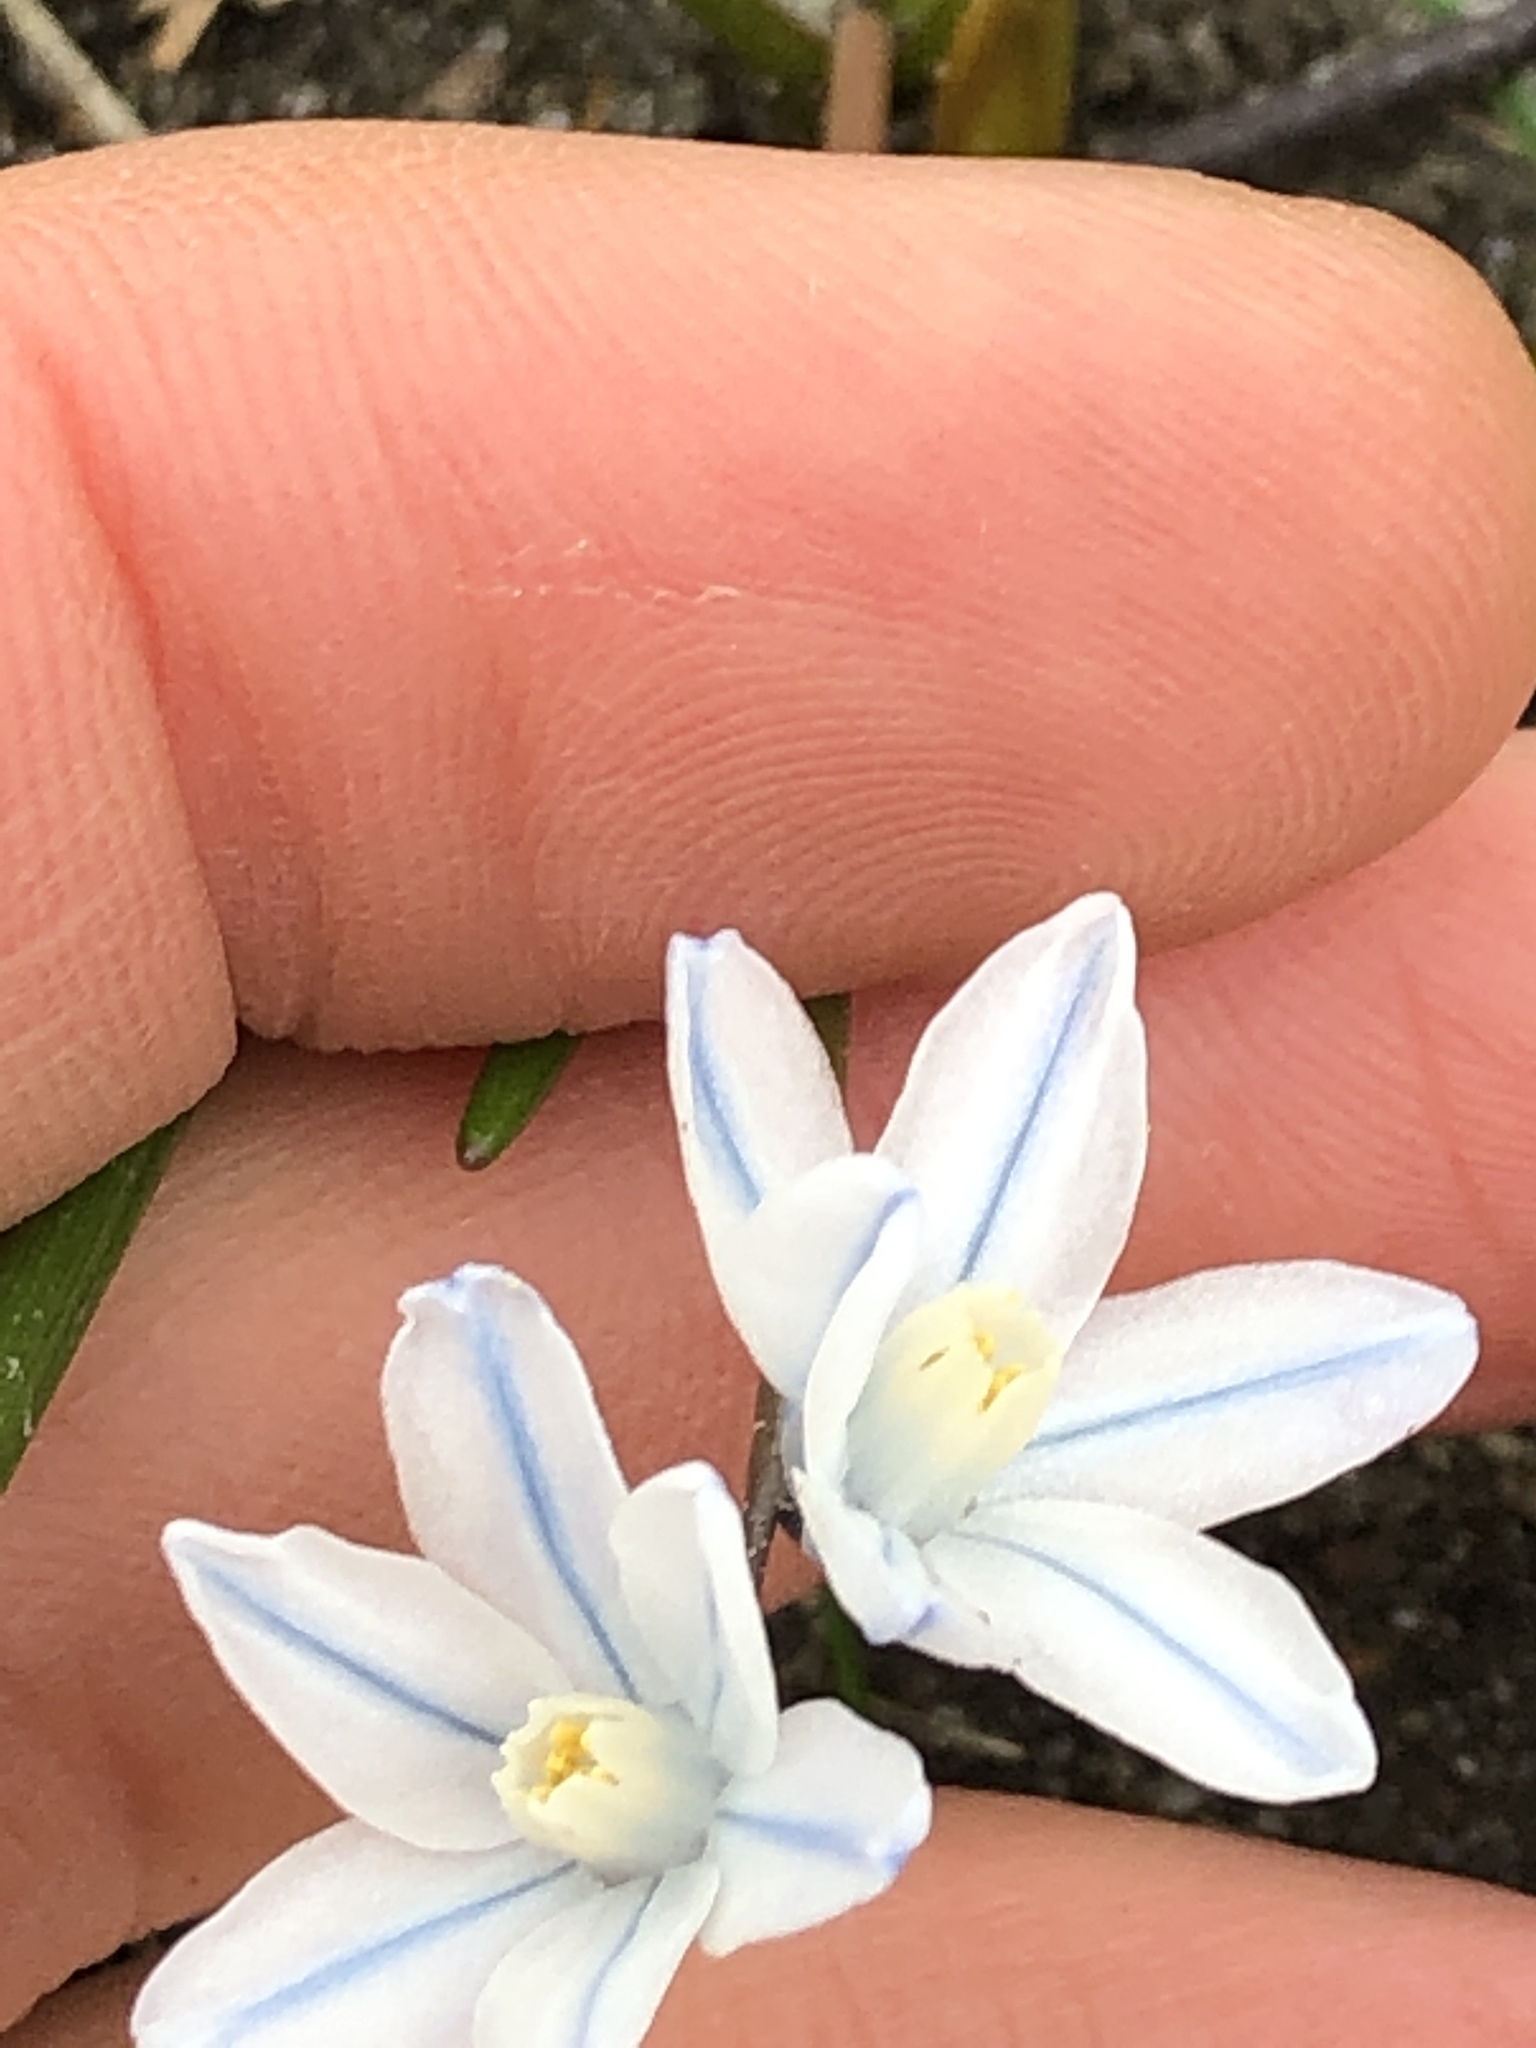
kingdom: Plantae
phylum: Tracheophyta
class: Liliopsida
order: Asparagales
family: Asparagaceae
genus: Puschkinia
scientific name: Puschkinia scilloides
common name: Striped squill
